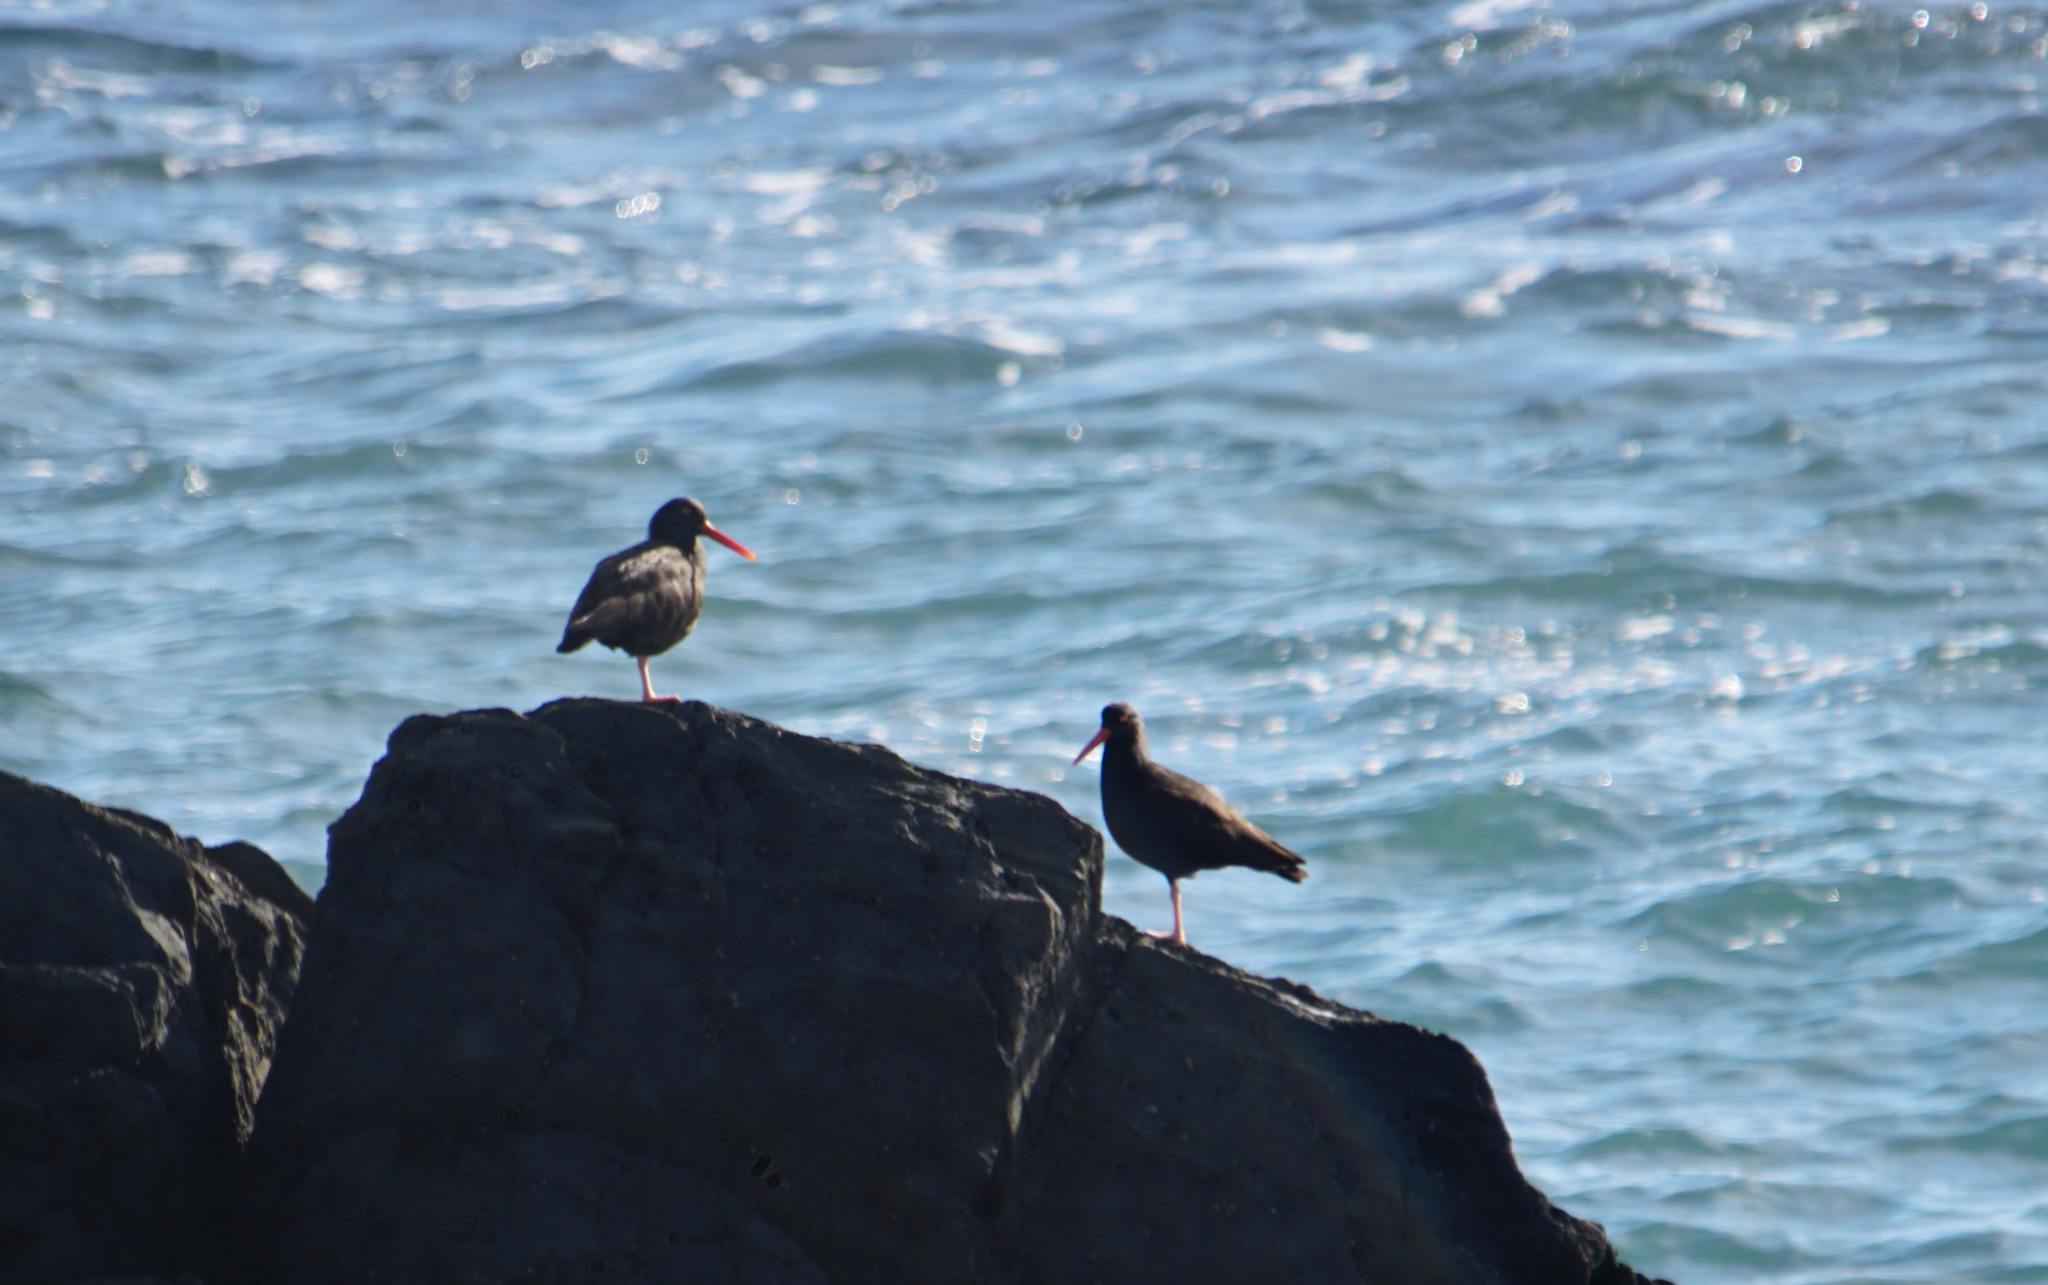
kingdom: Animalia
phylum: Chordata
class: Aves
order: Charadriiformes
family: Haematopodidae
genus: Haematopus
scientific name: Haematopus bachmani
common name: Black oystercatcher
